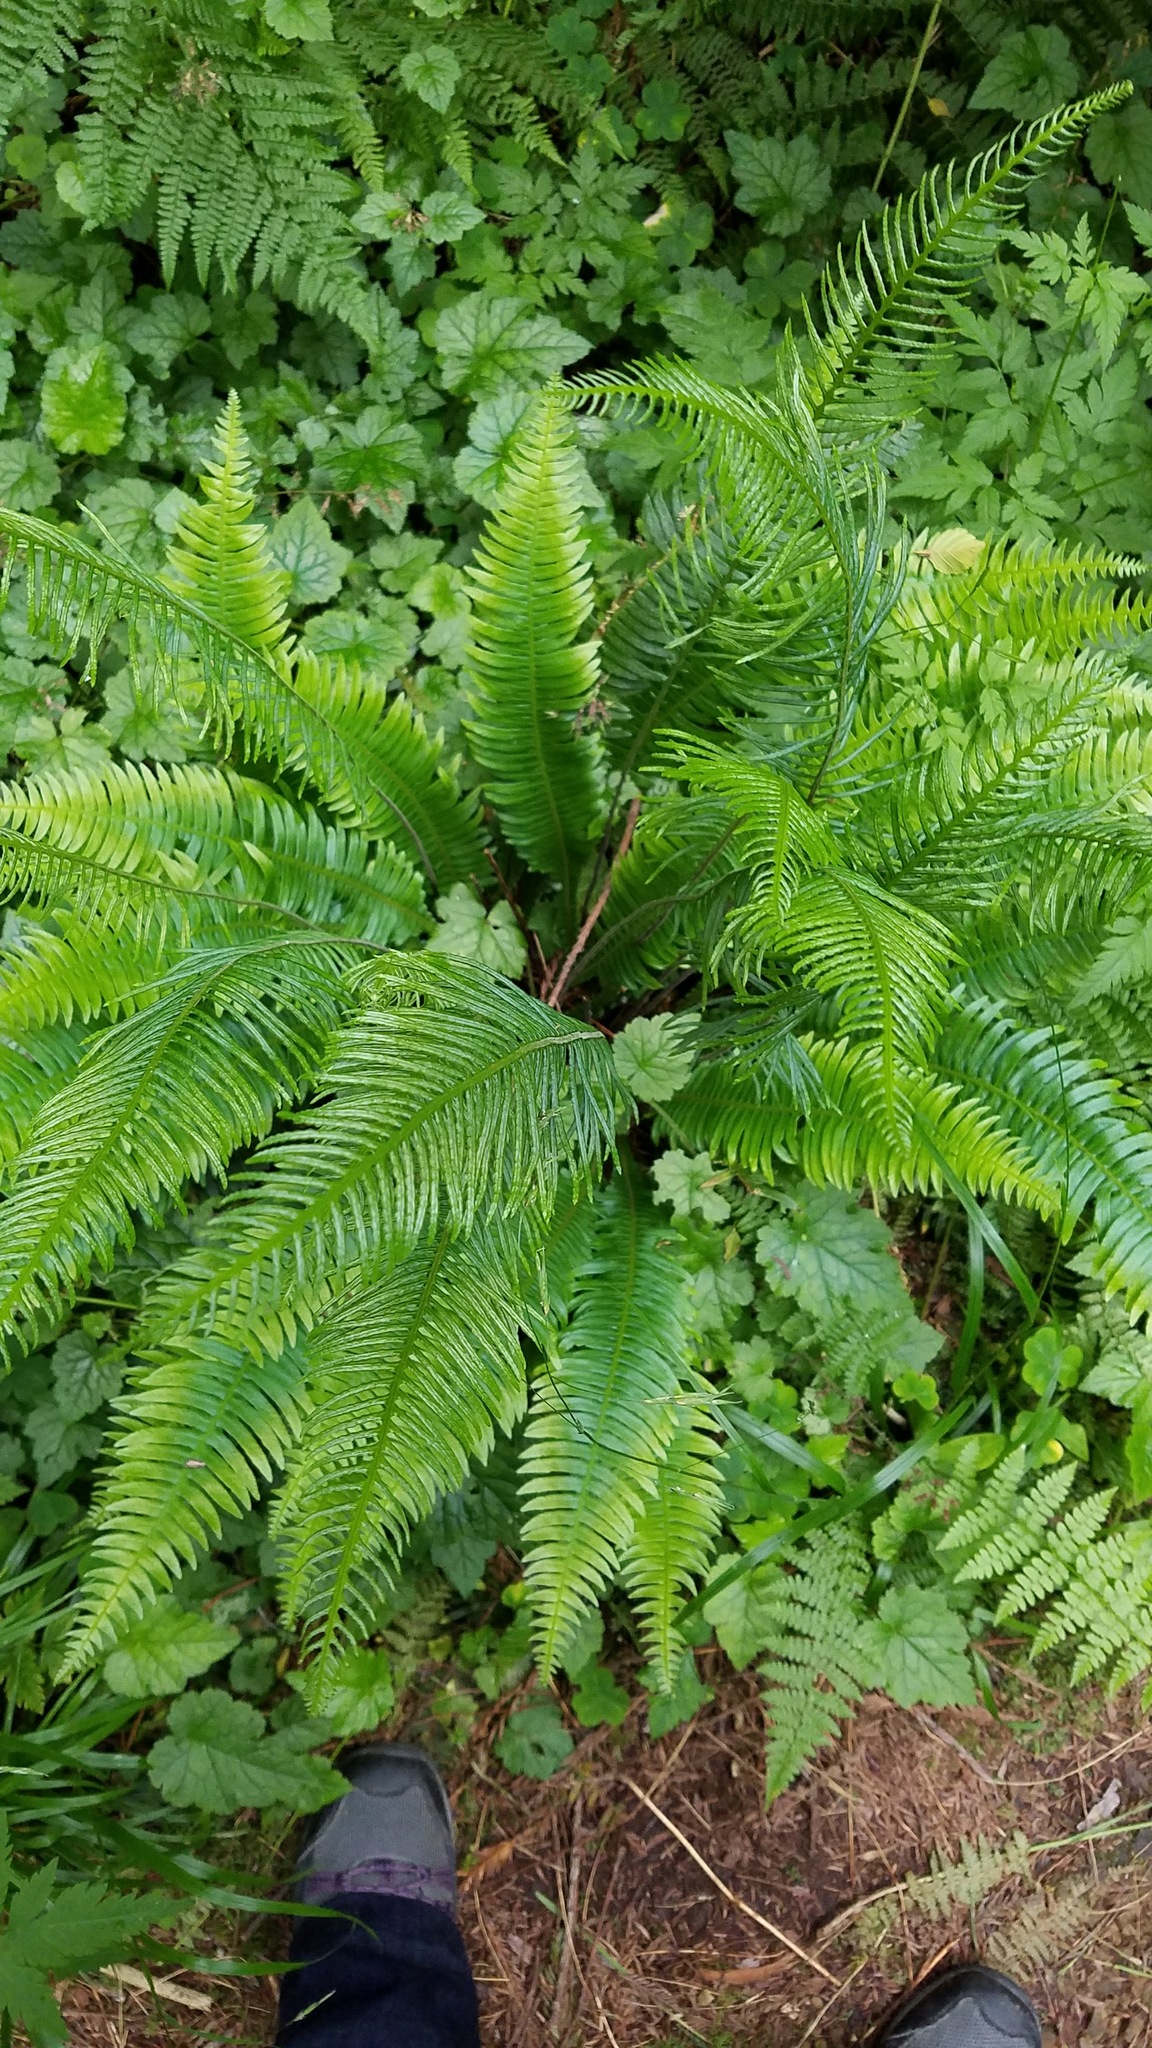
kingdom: Plantae
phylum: Tracheophyta
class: Polypodiopsida
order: Polypodiales
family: Blechnaceae
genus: Struthiopteris
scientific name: Struthiopteris spicant
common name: Deer fern
